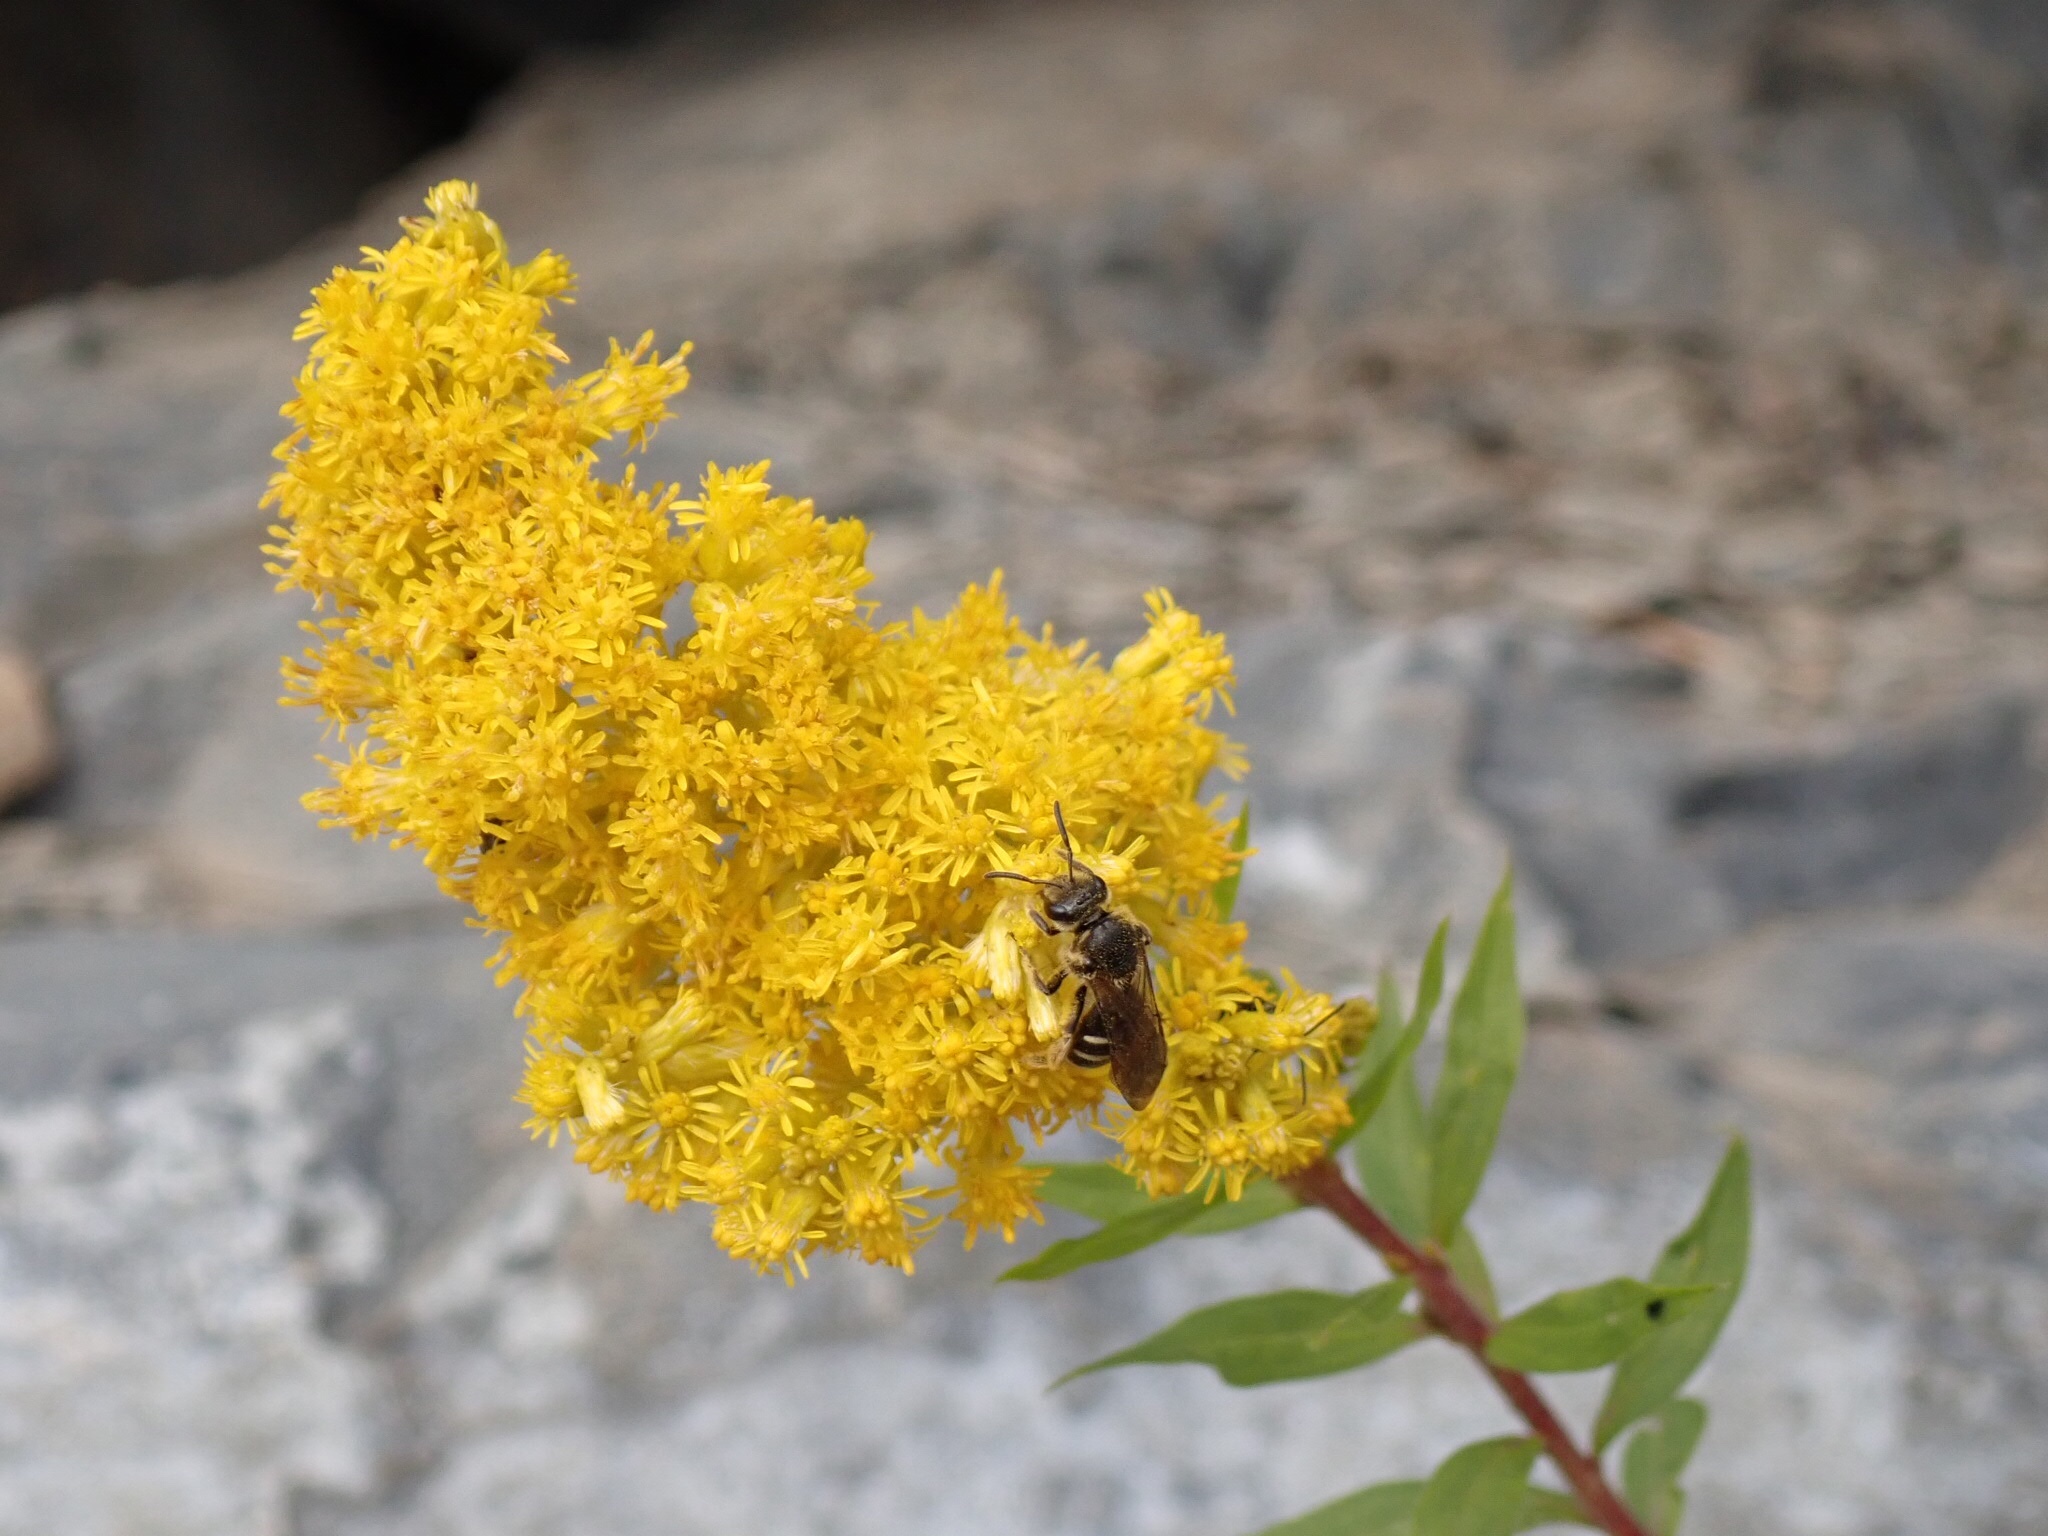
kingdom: Animalia
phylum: Arthropoda
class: Insecta
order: Hymenoptera
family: Halictidae
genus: Lasioglossum
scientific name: Lasioglossum sisymbrii
